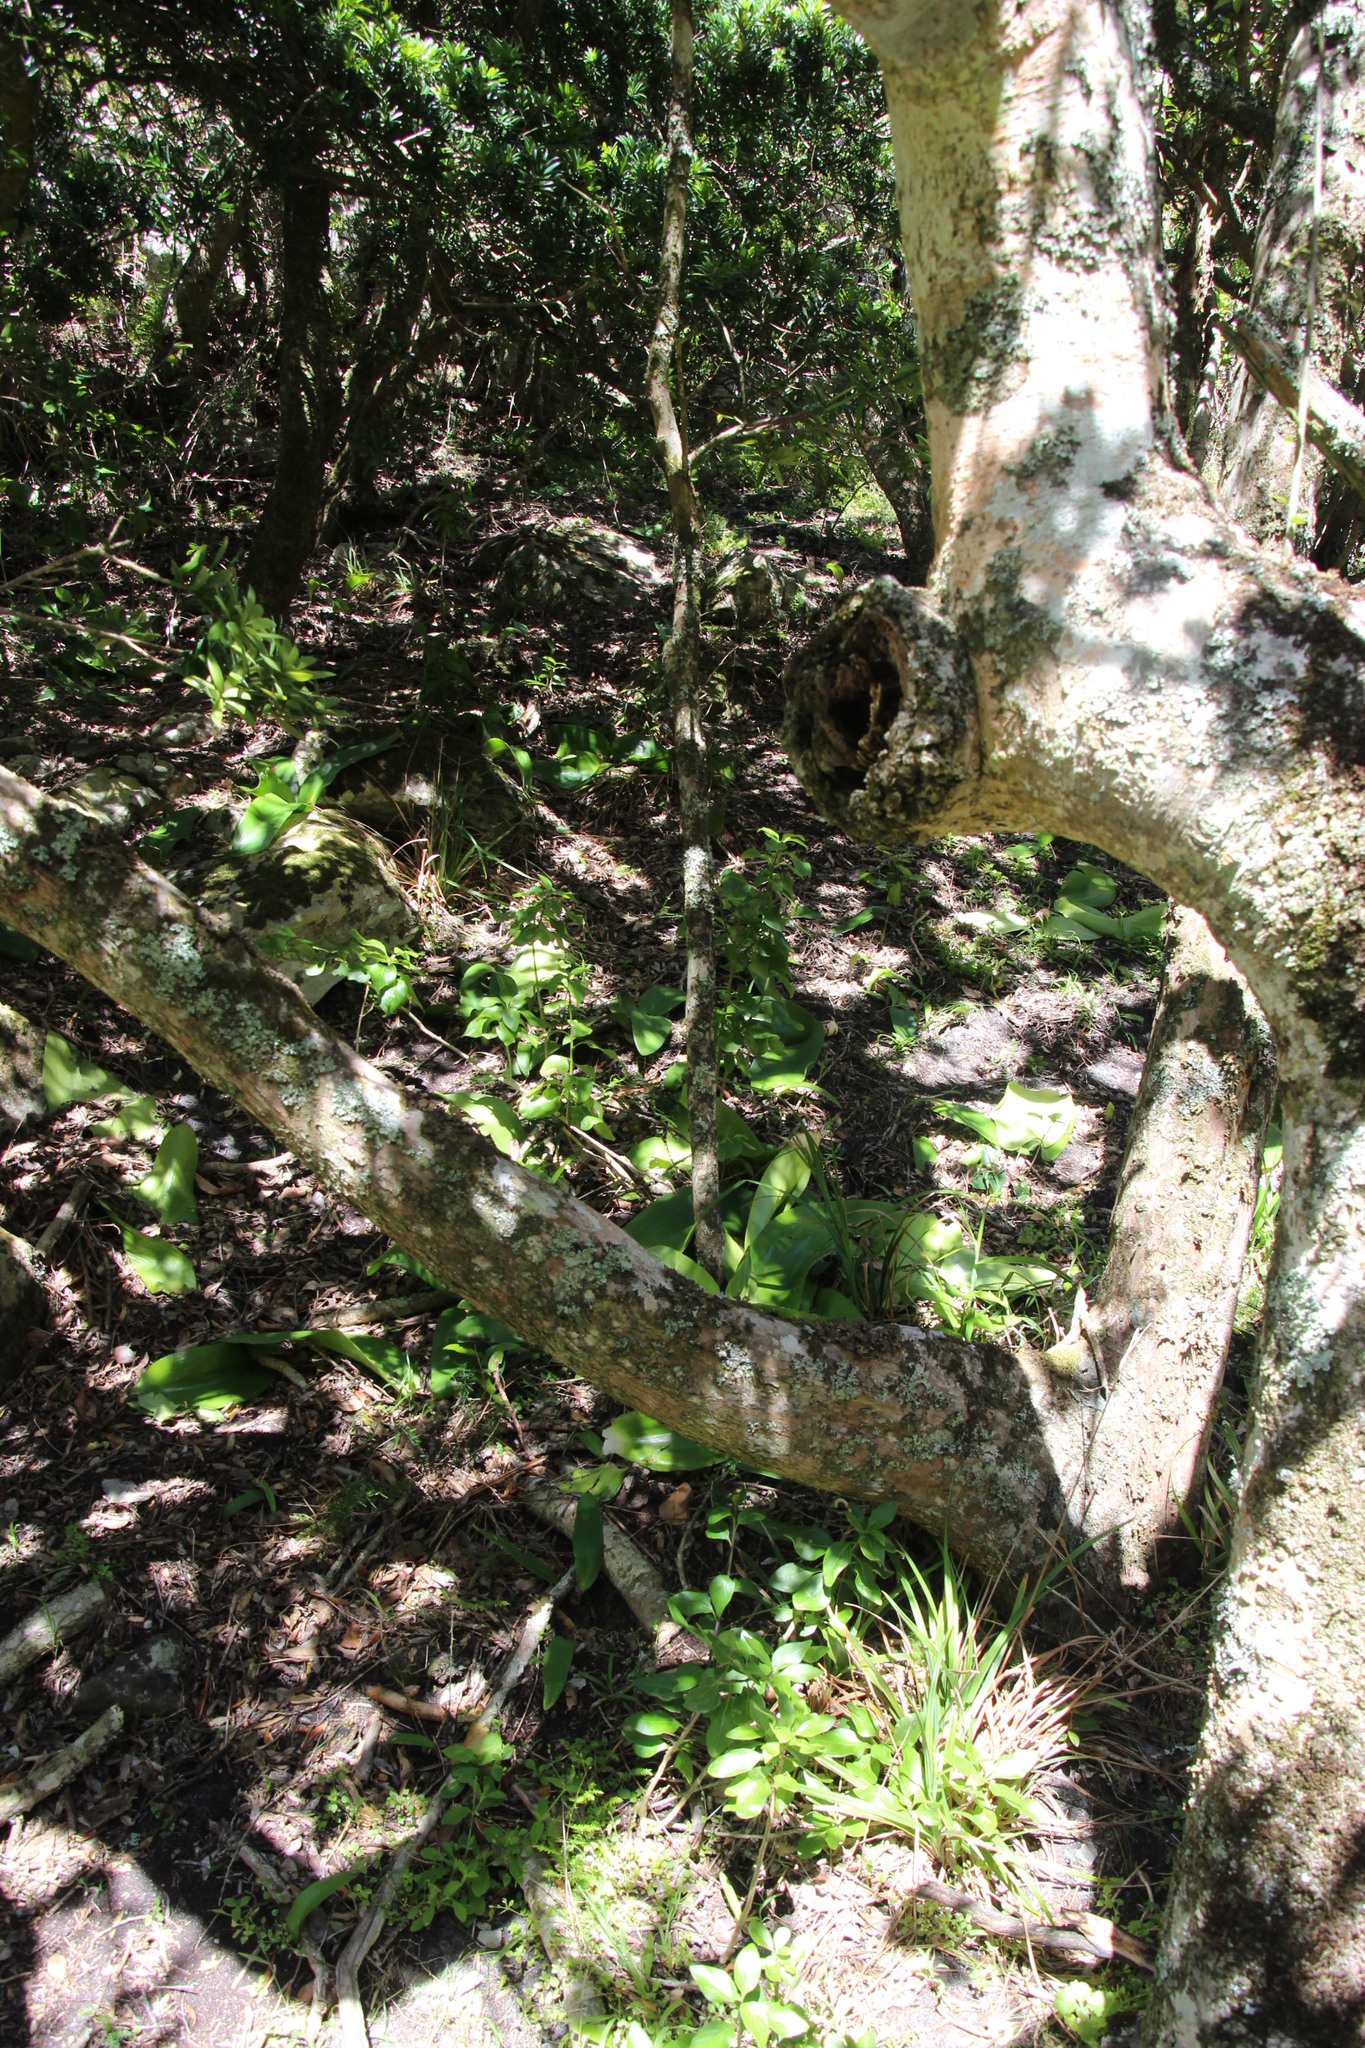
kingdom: Plantae
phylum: Tracheophyta
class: Liliopsida
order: Asparagales
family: Amaryllidaceae
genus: Haemanthus
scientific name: Haemanthus coccineus
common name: Cape-tulip
